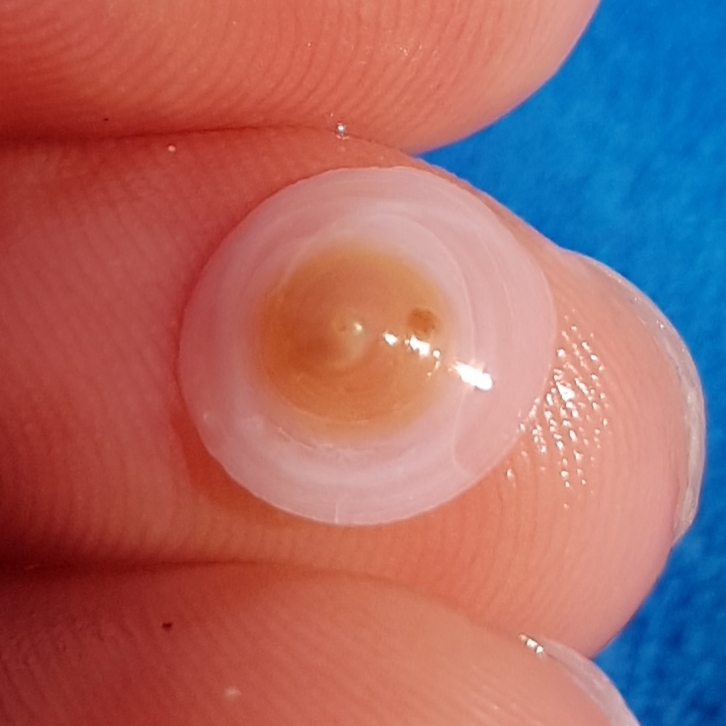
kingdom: Animalia
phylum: Mollusca
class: Gastropoda
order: Littorinimorpha
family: Calyptraeidae
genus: Calyptraea
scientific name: Calyptraea chinensis
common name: Chinaman's hat
